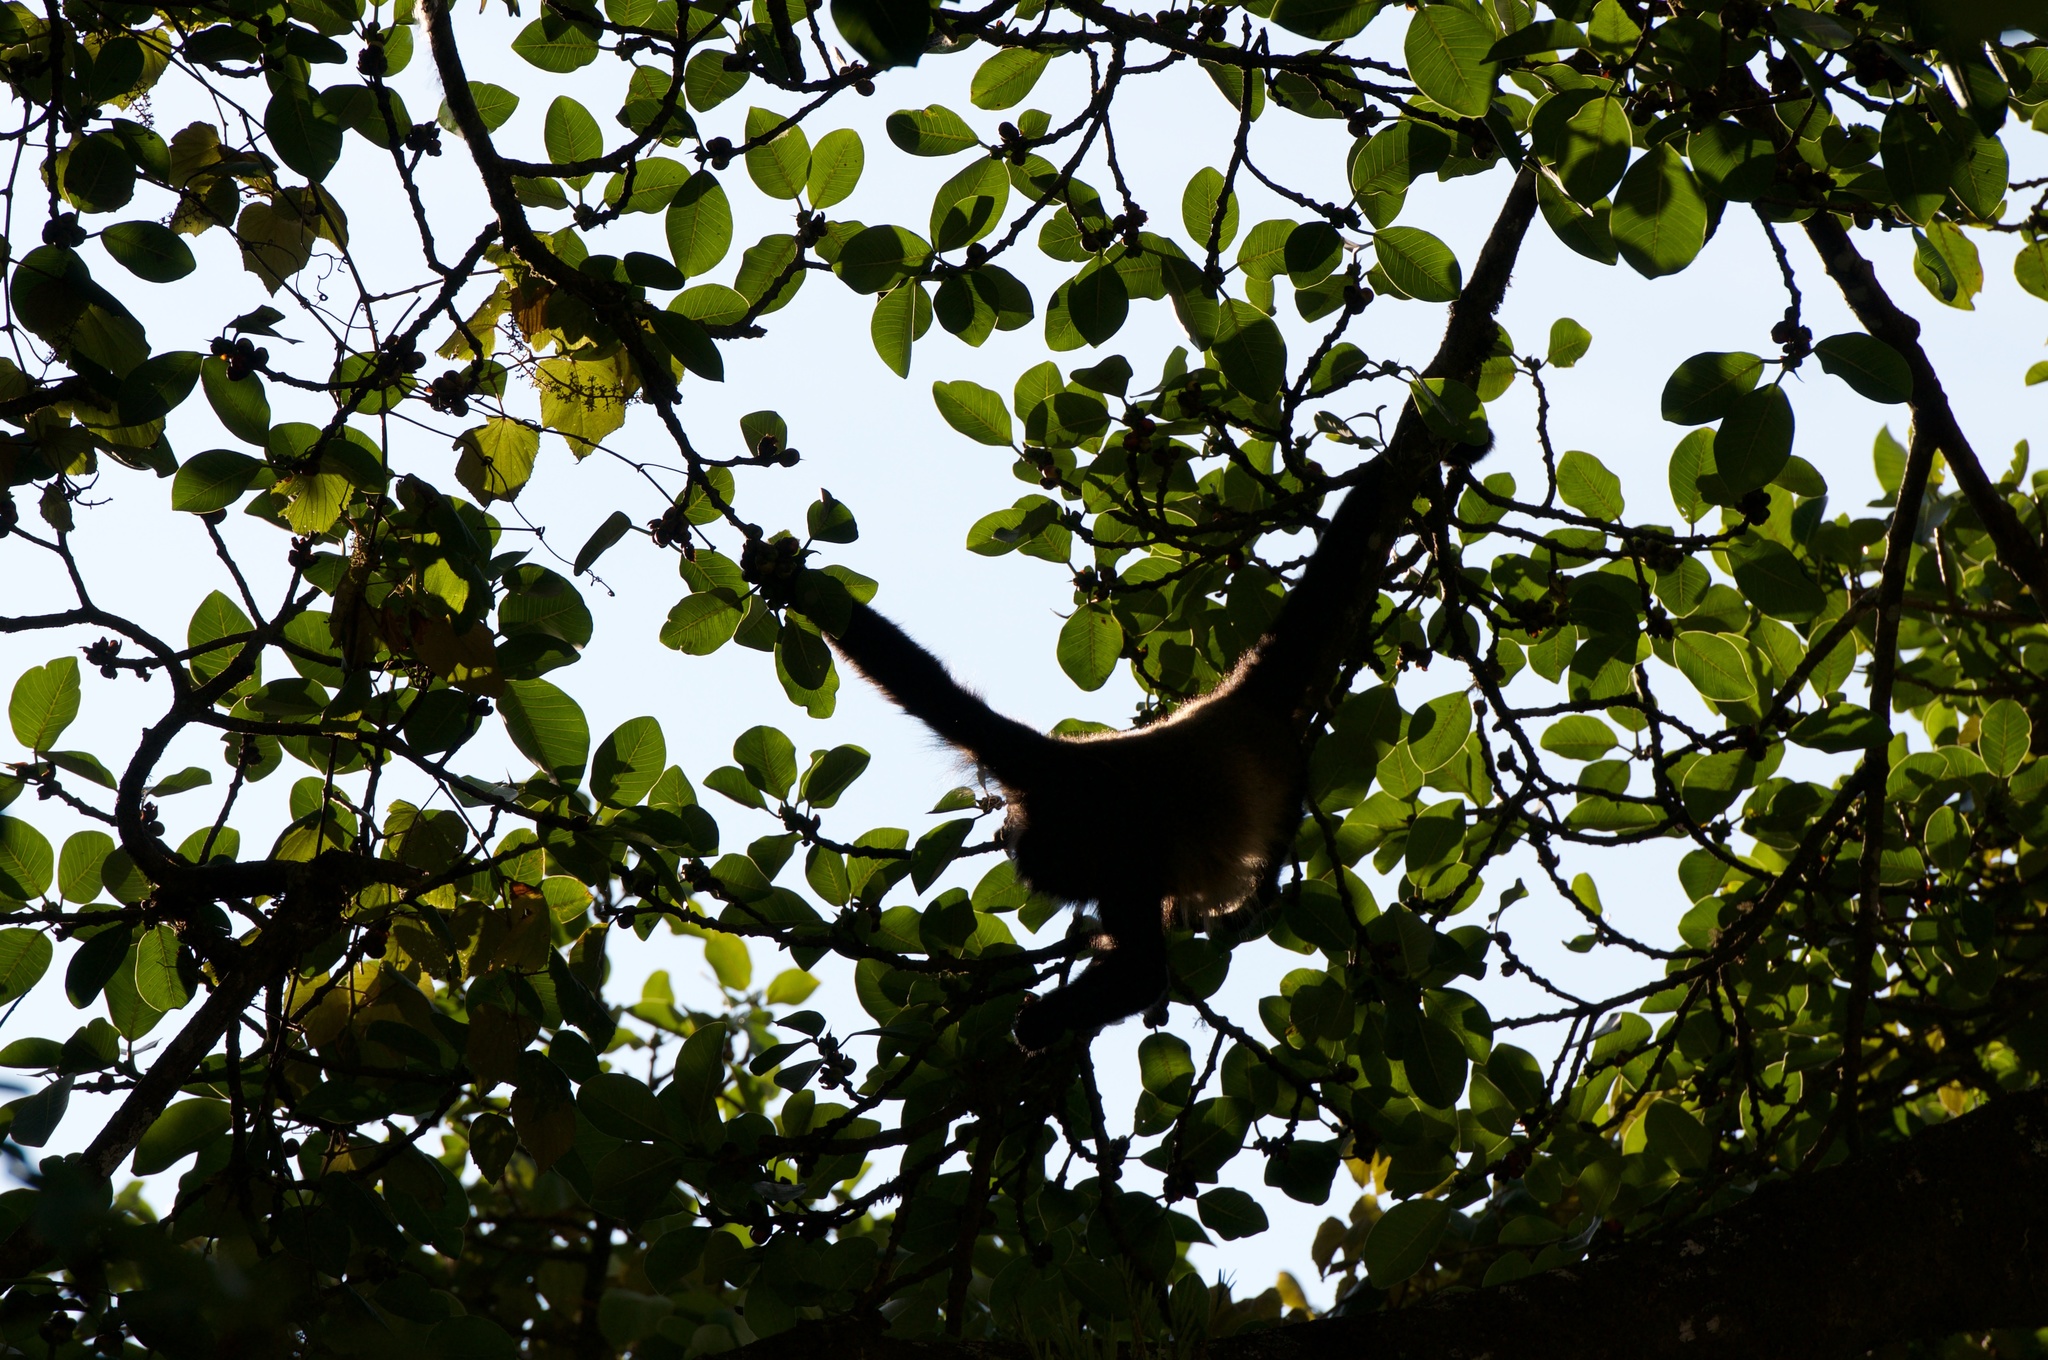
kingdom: Animalia
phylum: Chordata
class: Mammalia
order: Primates
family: Atelidae
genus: Alouatta
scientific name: Alouatta palliata
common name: Mantled howler
